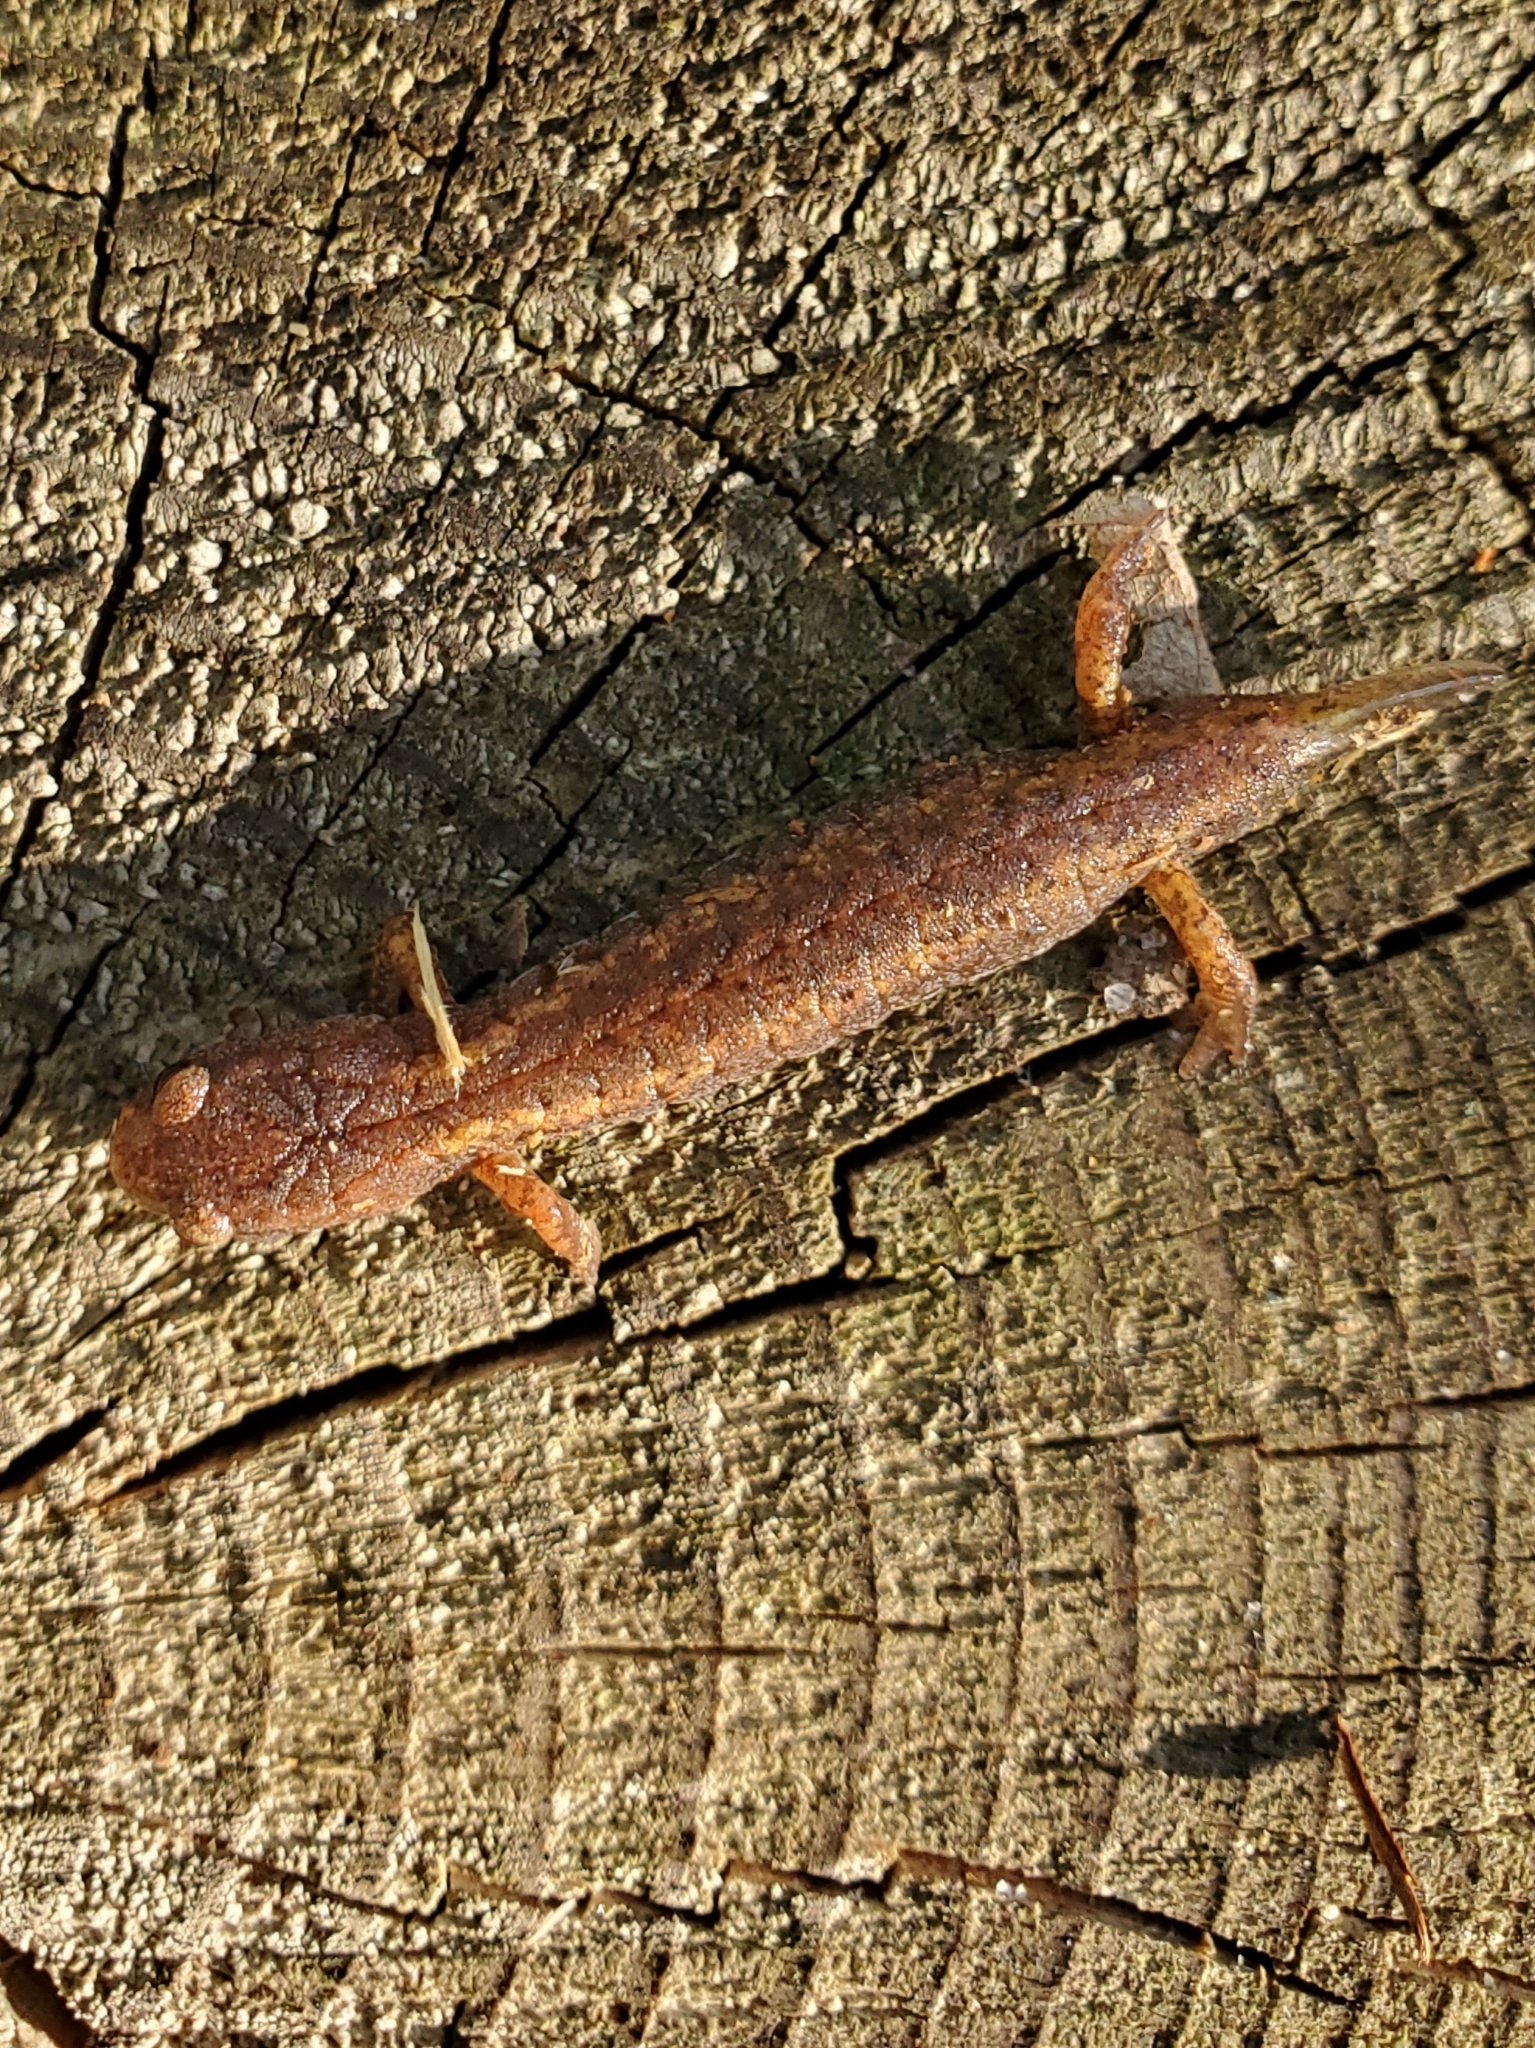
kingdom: Animalia
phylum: Chordata
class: Amphibia
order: Caudata
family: Plethodontidae
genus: Hemidactylium
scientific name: Hemidactylium scutatum
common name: Four-toed salamander
